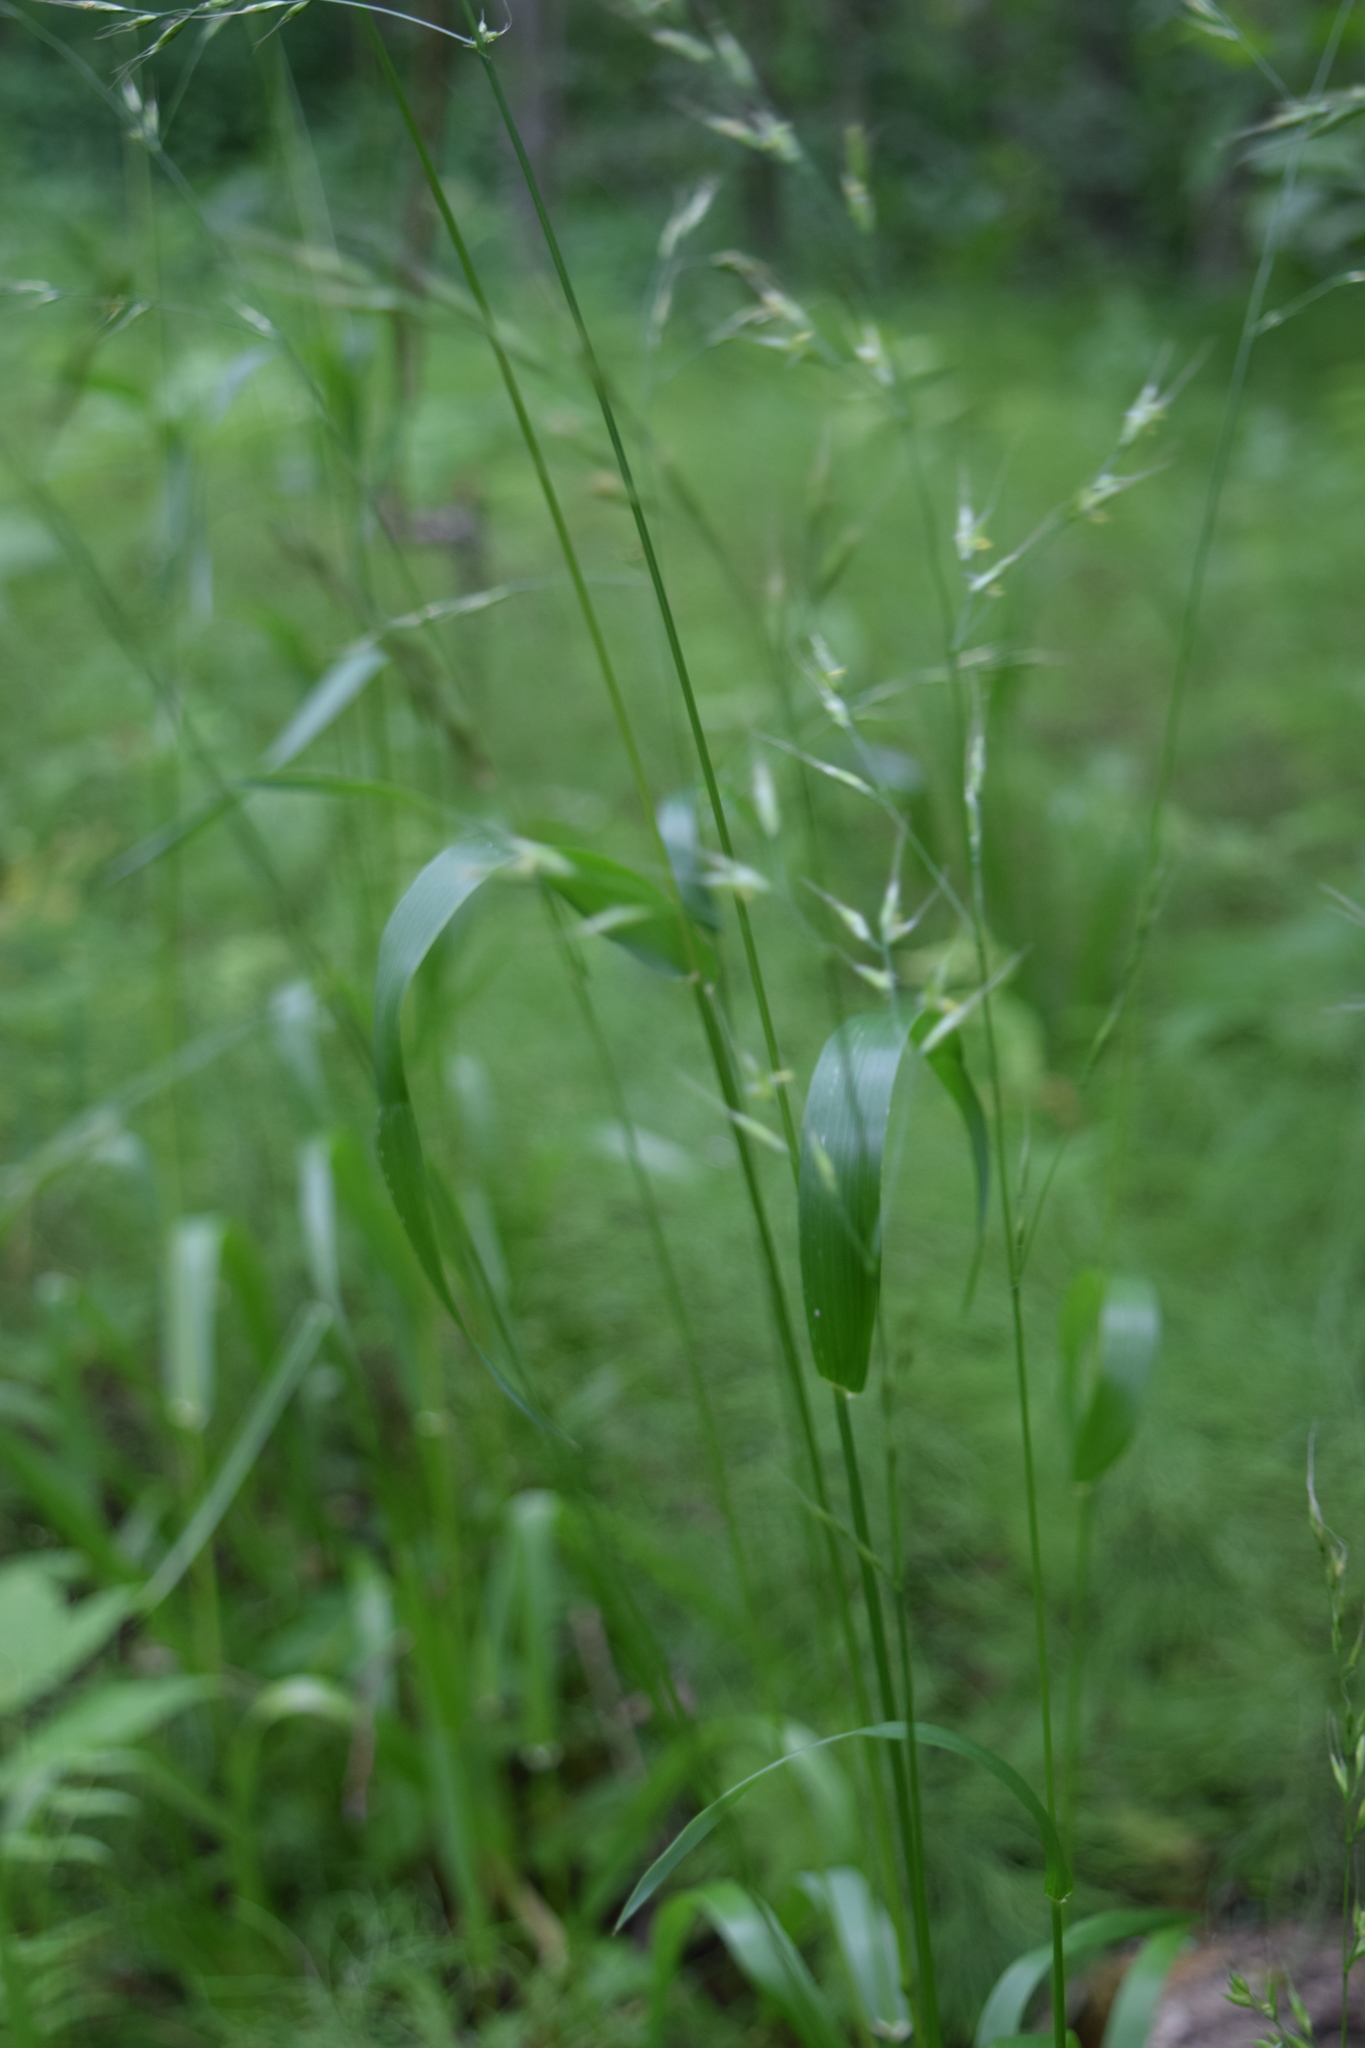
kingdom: Plantae
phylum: Tracheophyta
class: Liliopsida
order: Poales
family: Poaceae
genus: Lolium
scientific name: Lolium giganteum
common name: Giant fescue
